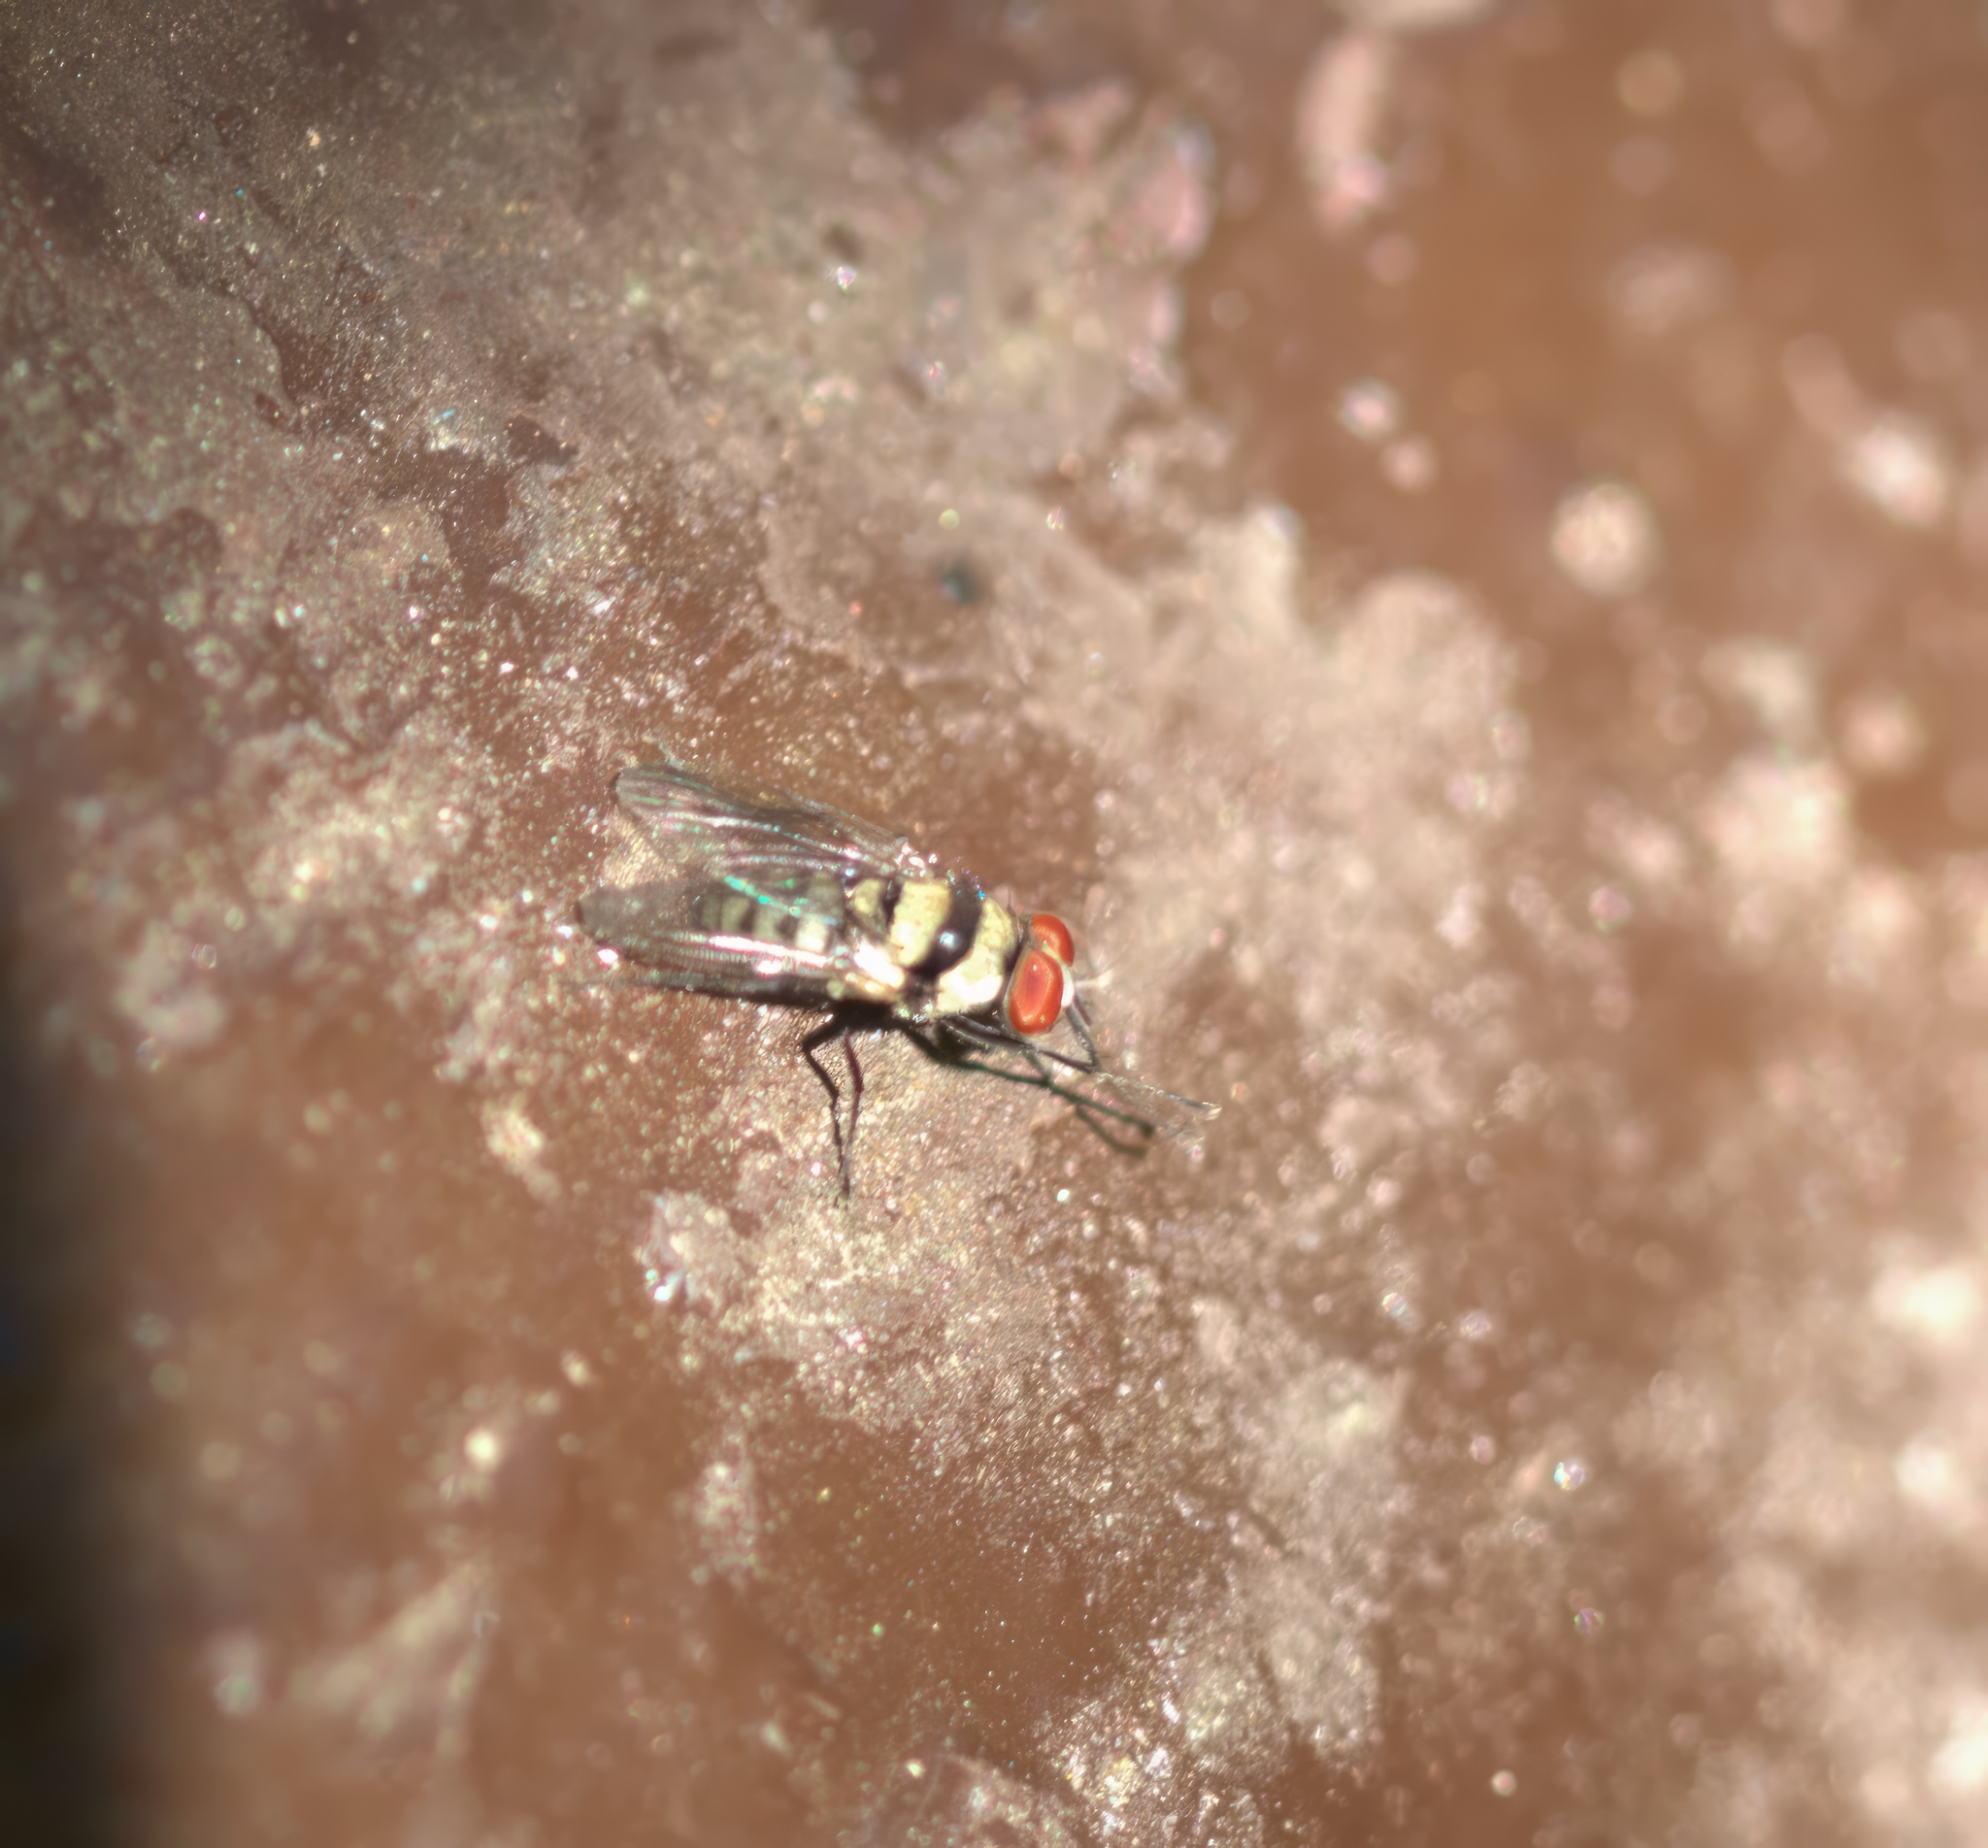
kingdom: Animalia
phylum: Arthropoda
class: Insecta
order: Diptera
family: Anthomyiidae
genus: Anthomyia
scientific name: Anthomyia illocata
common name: Fly
